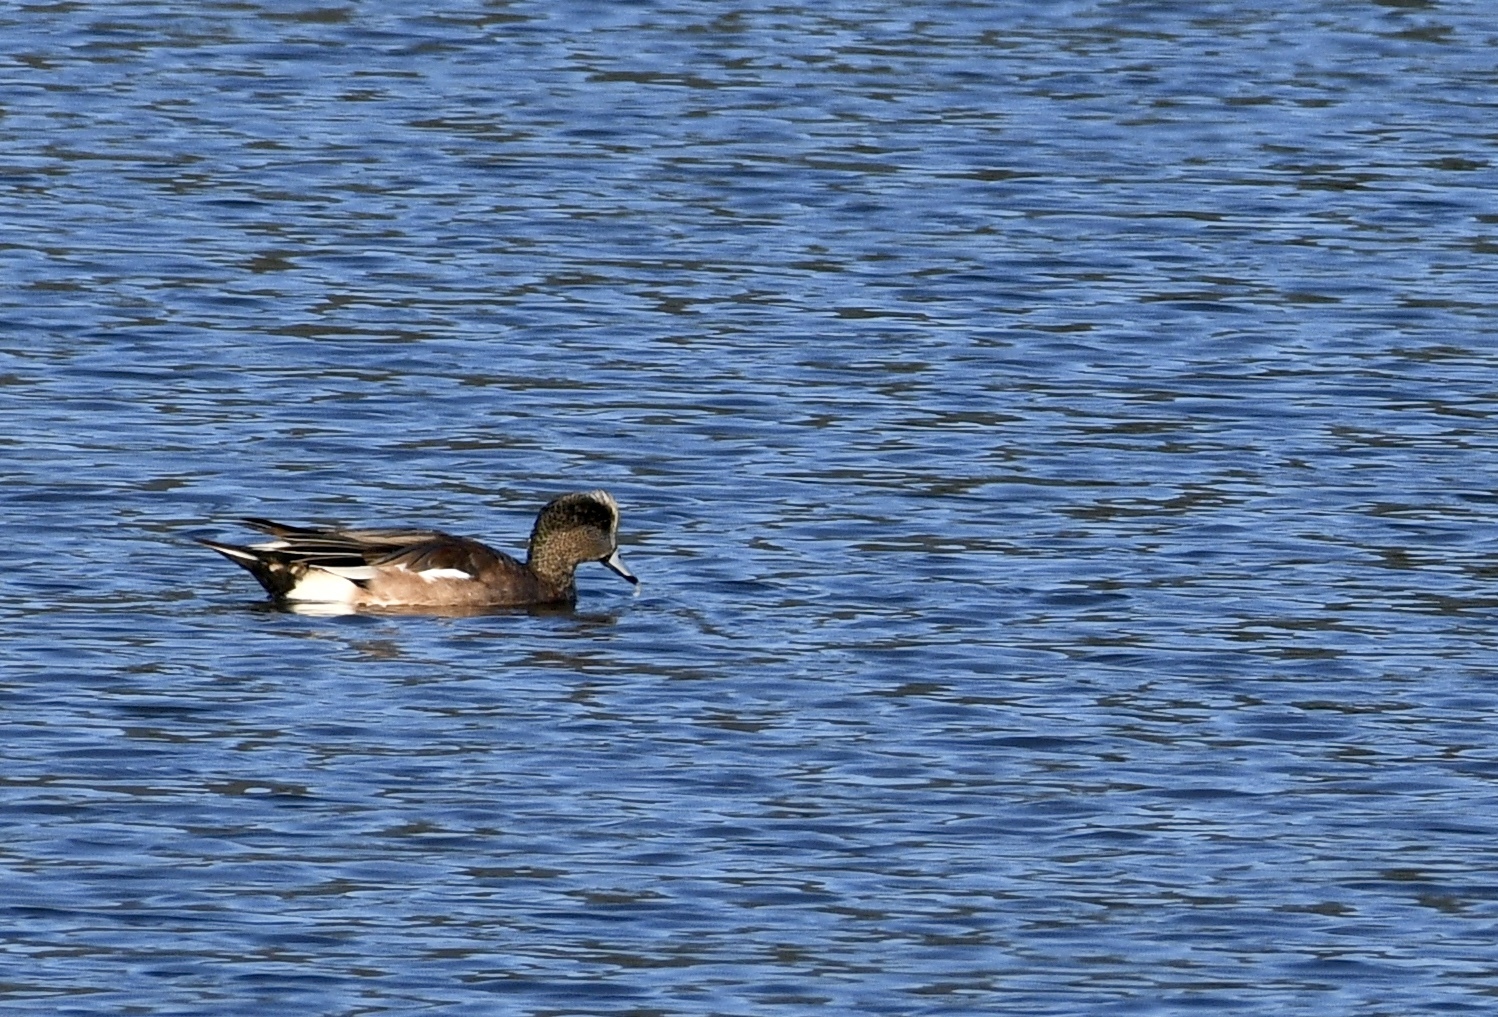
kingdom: Animalia
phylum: Chordata
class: Aves
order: Anseriformes
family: Anatidae
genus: Mareca
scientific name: Mareca americana
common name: American wigeon
